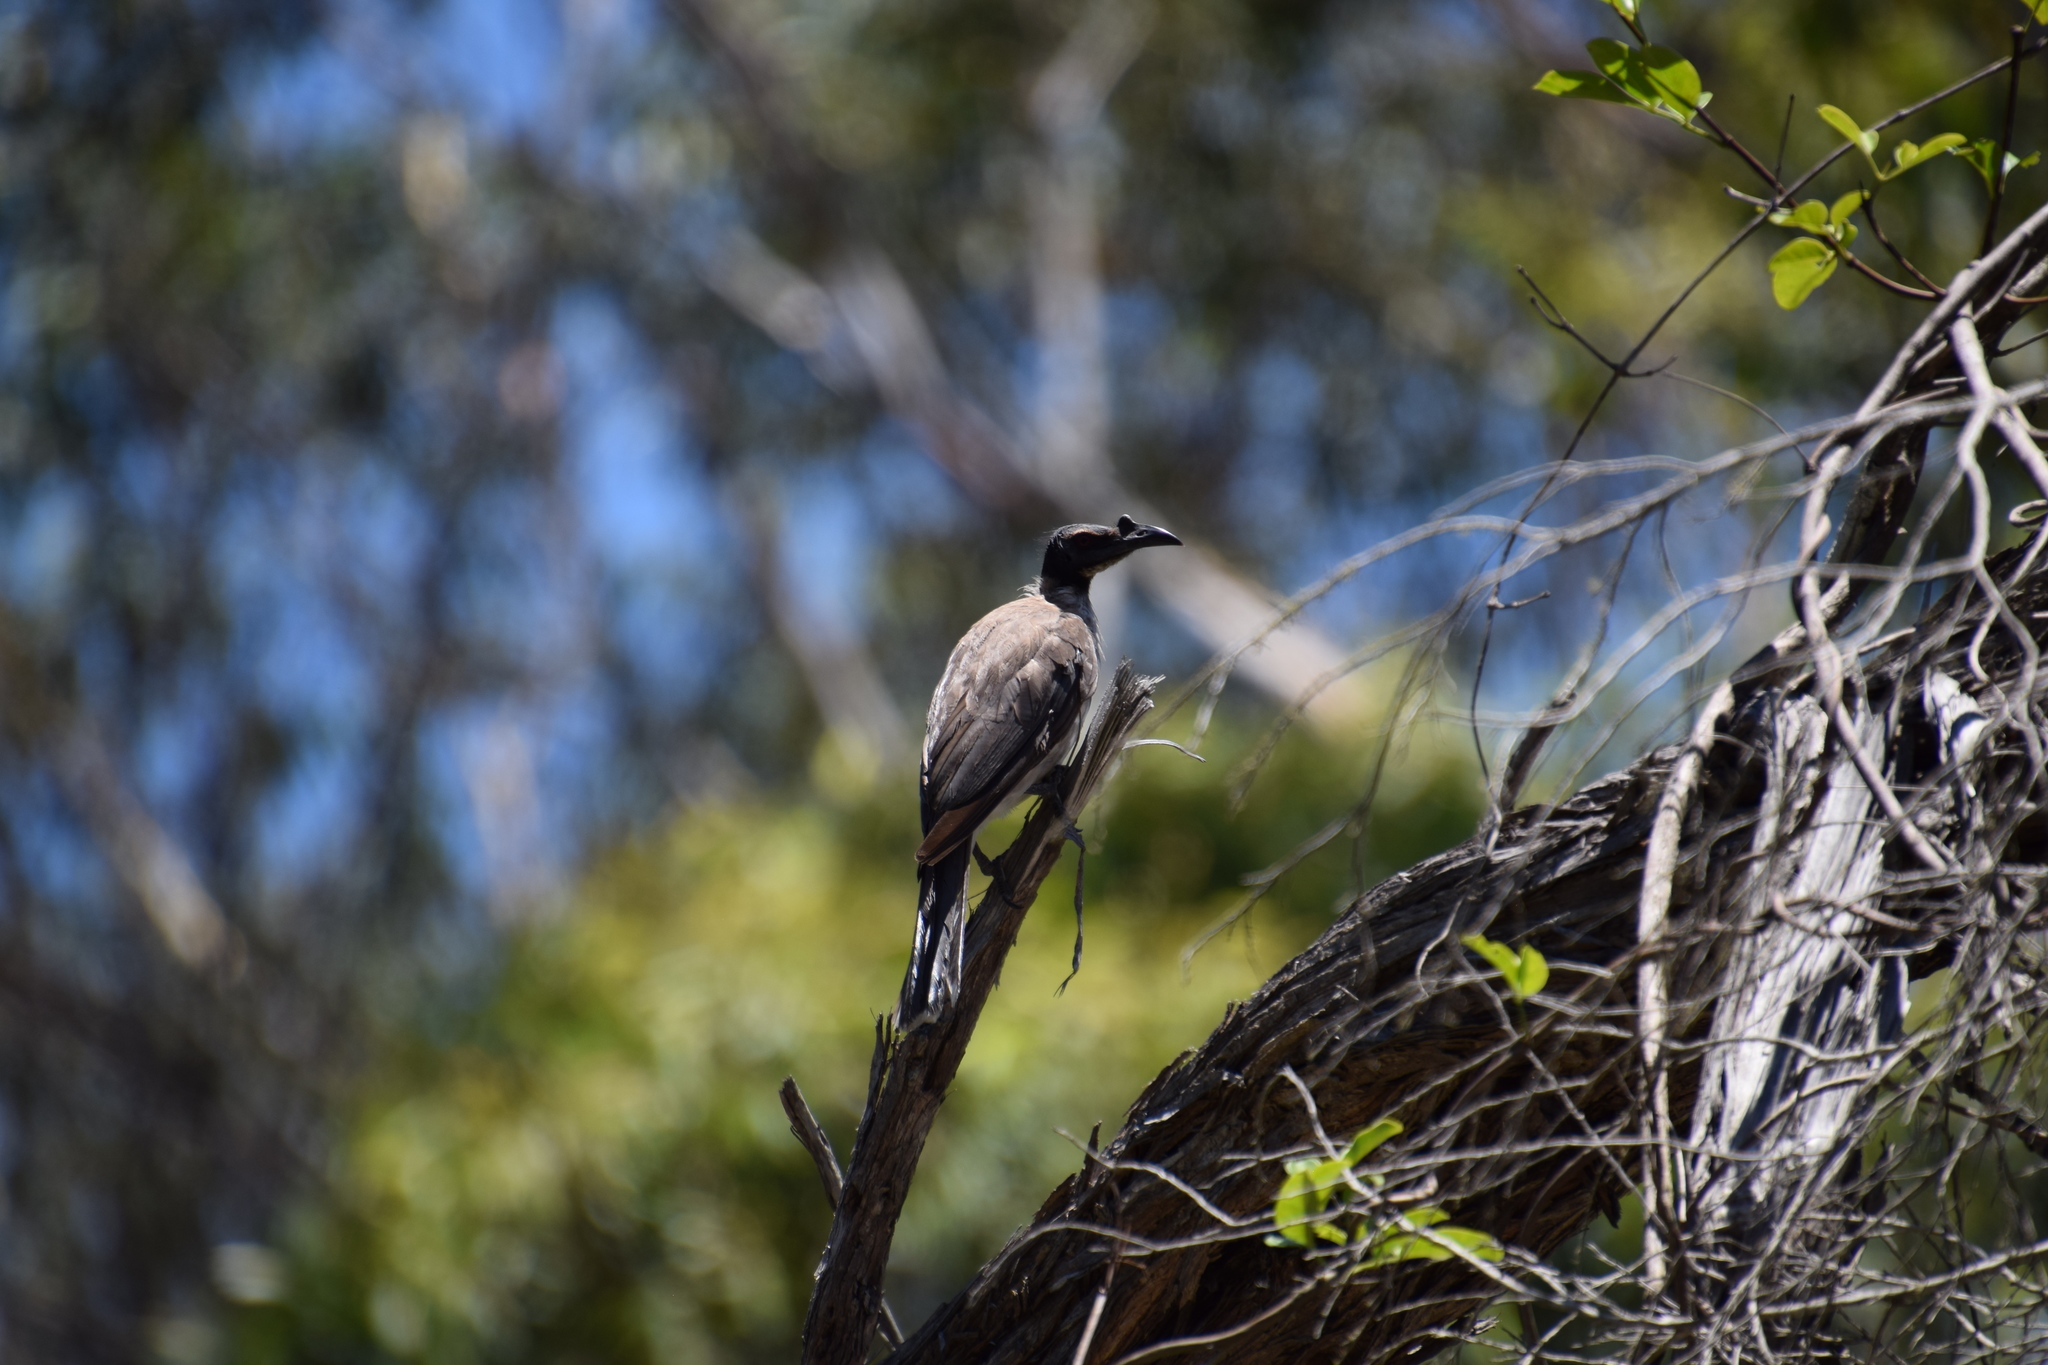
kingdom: Animalia
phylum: Chordata
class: Aves
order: Passeriformes
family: Meliphagidae
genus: Philemon
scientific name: Philemon corniculatus
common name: Noisy friarbird
